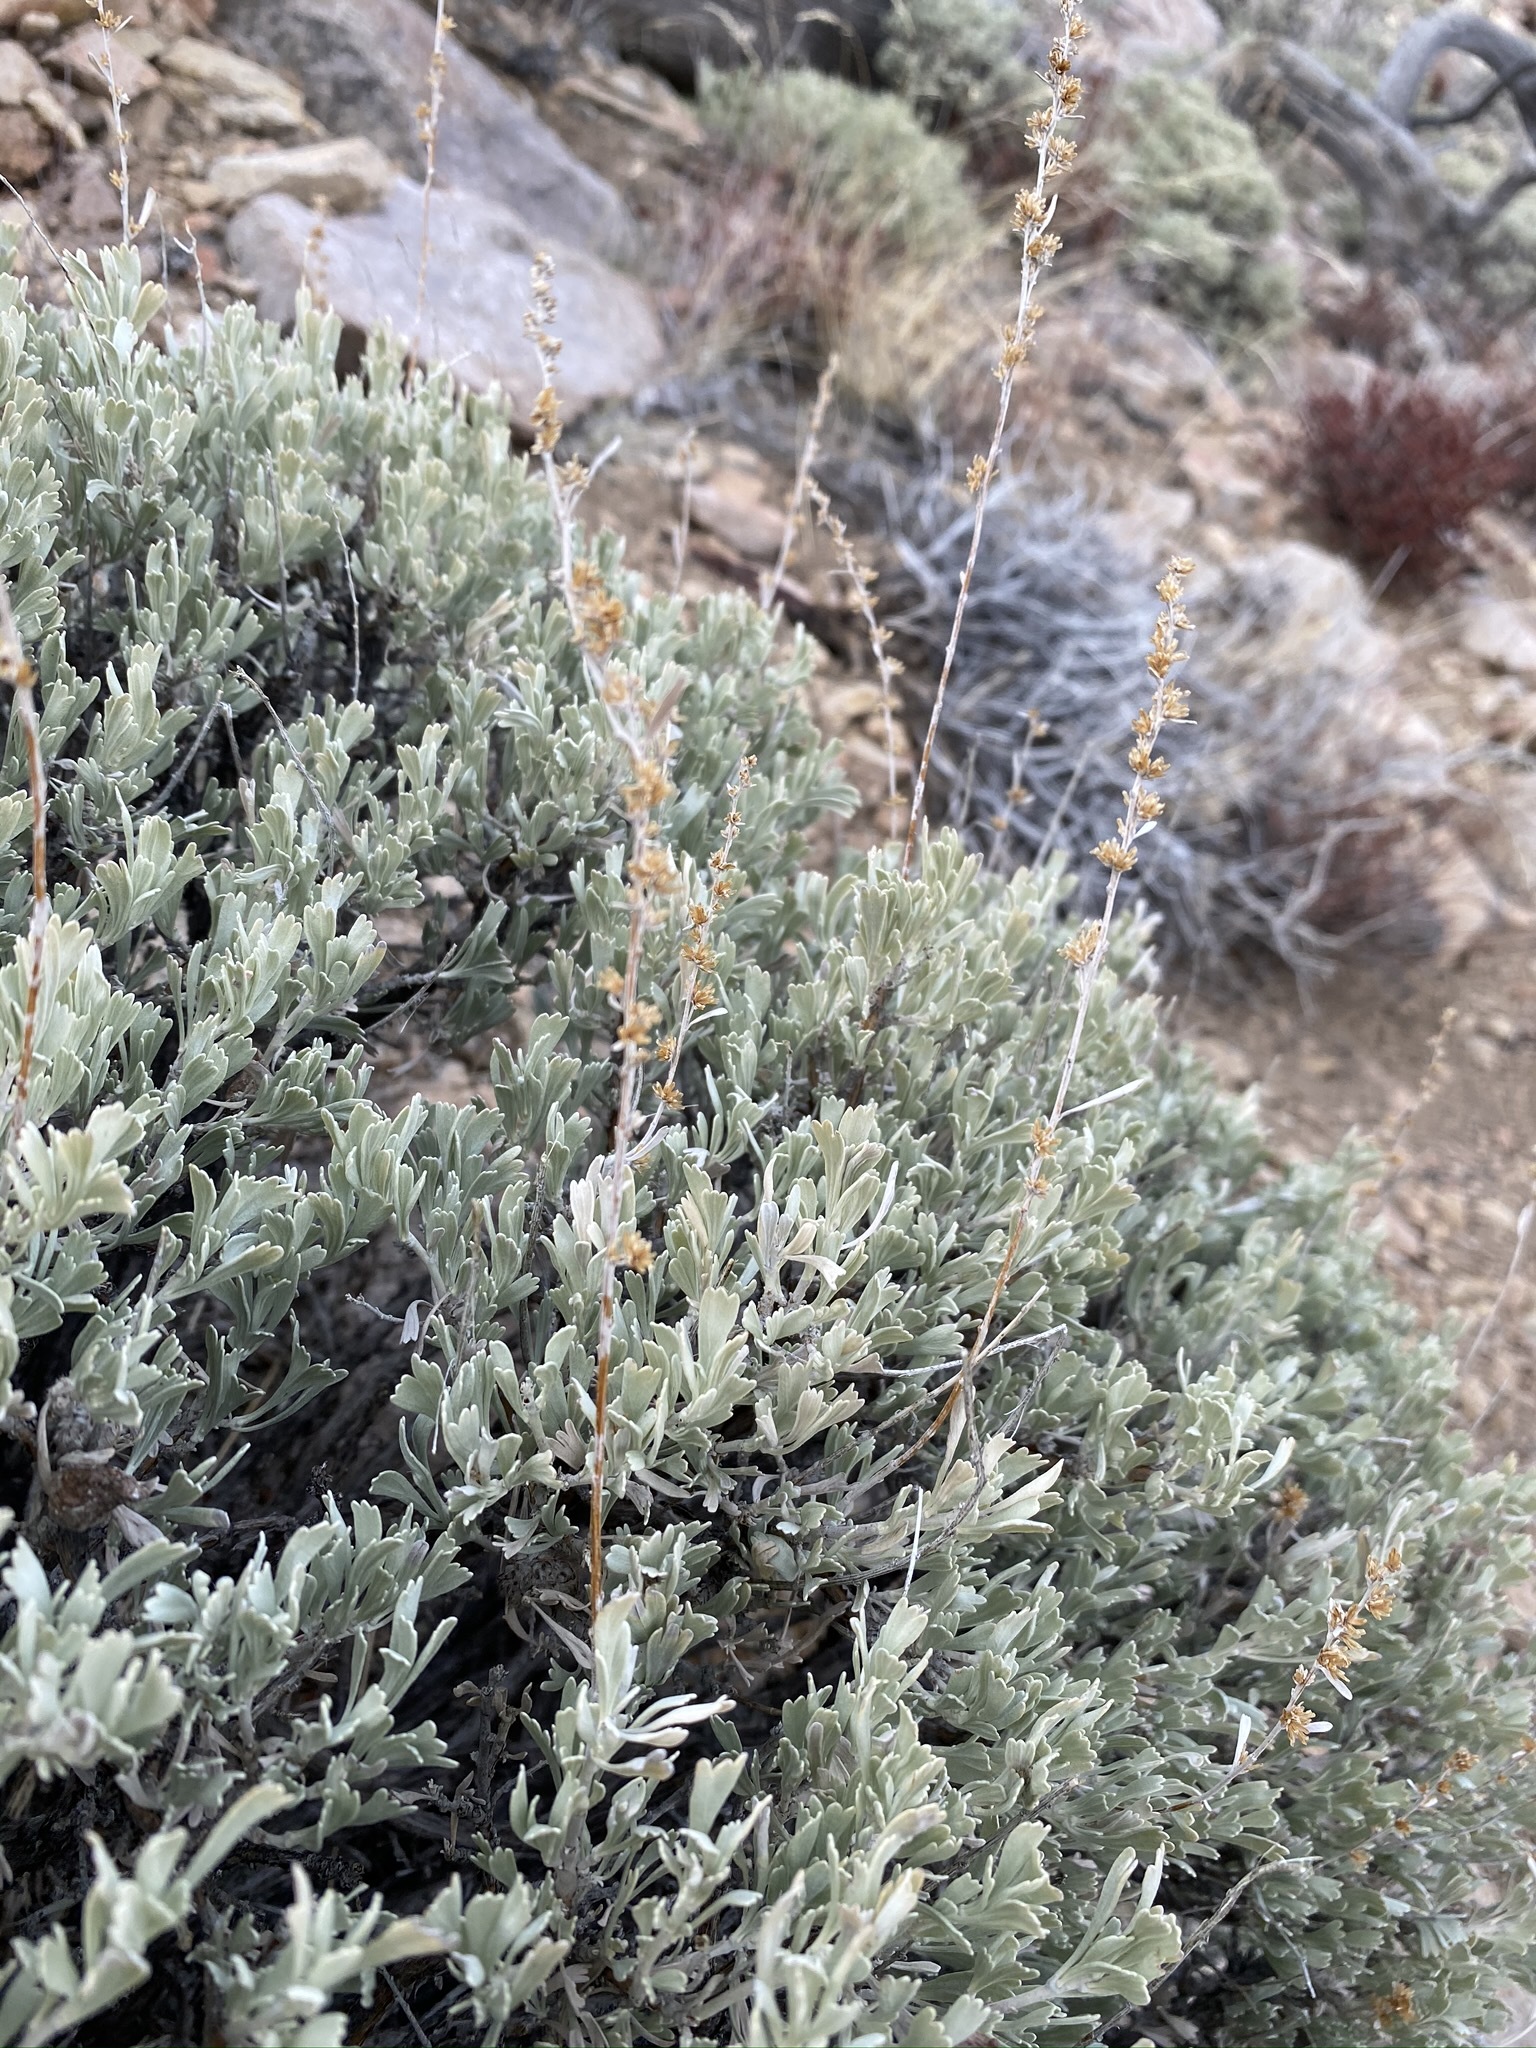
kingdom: Plantae
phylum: Tracheophyta
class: Magnoliopsida
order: Asterales
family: Asteraceae
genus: Artemisia
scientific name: Artemisia tridentata
